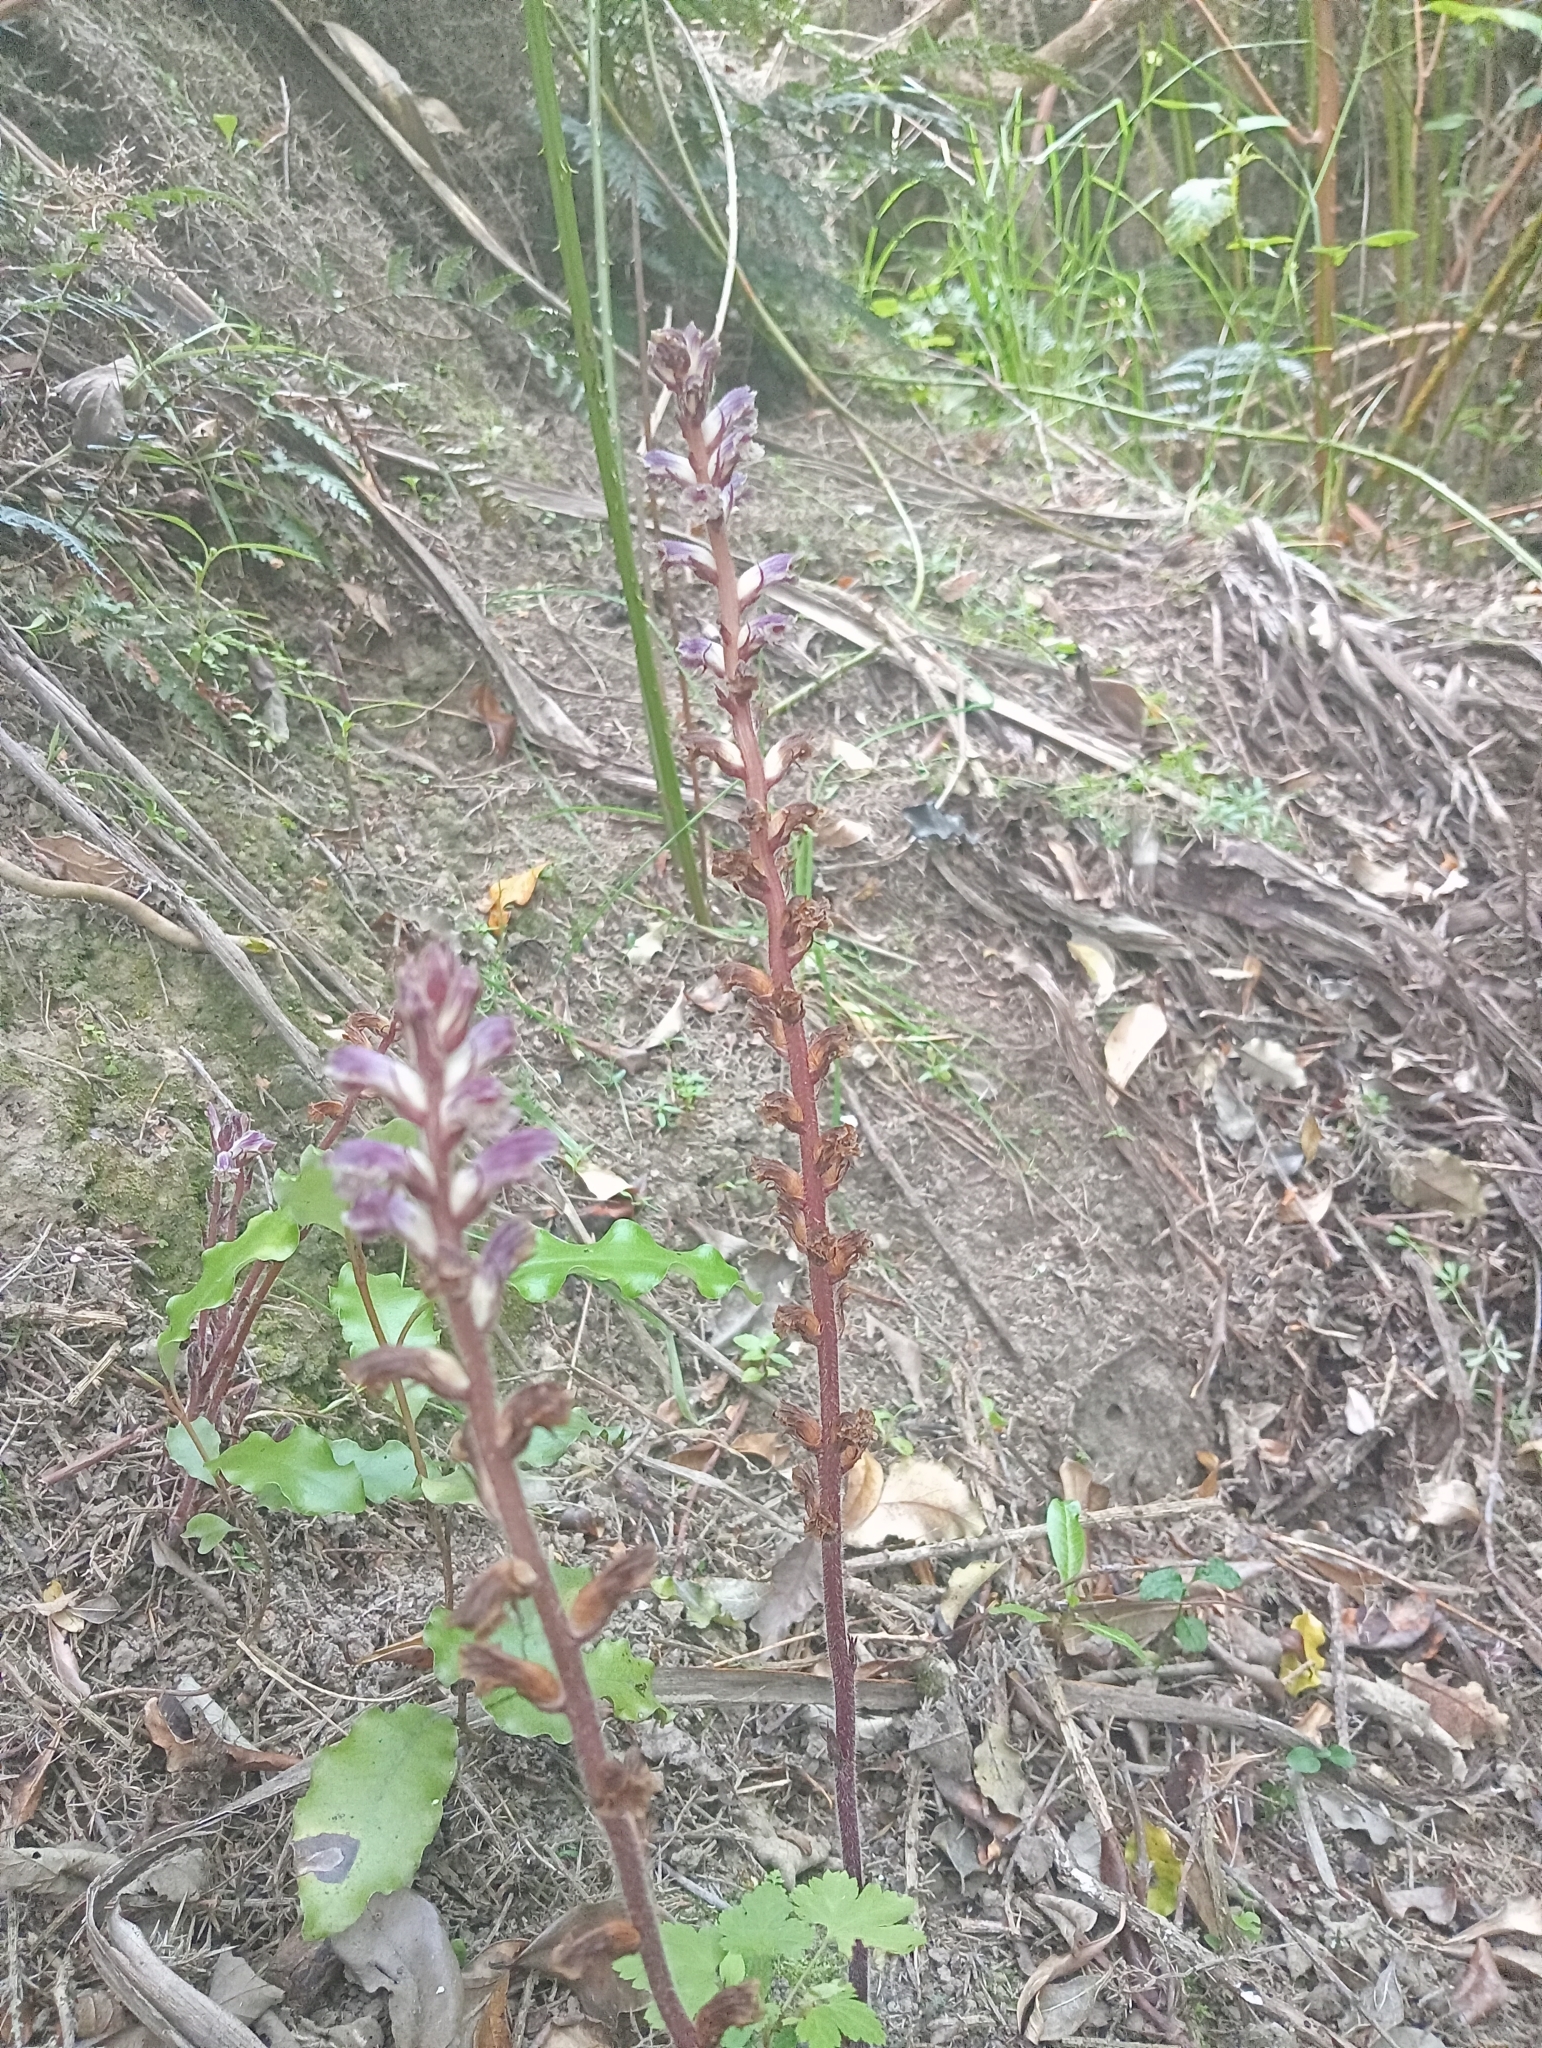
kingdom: Plantae
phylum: Tracheophyta
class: Magnoliopsida
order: Lamiales
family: Orobanchaceae
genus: Orobanche
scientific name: Orobanche minor
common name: Common broomrape
